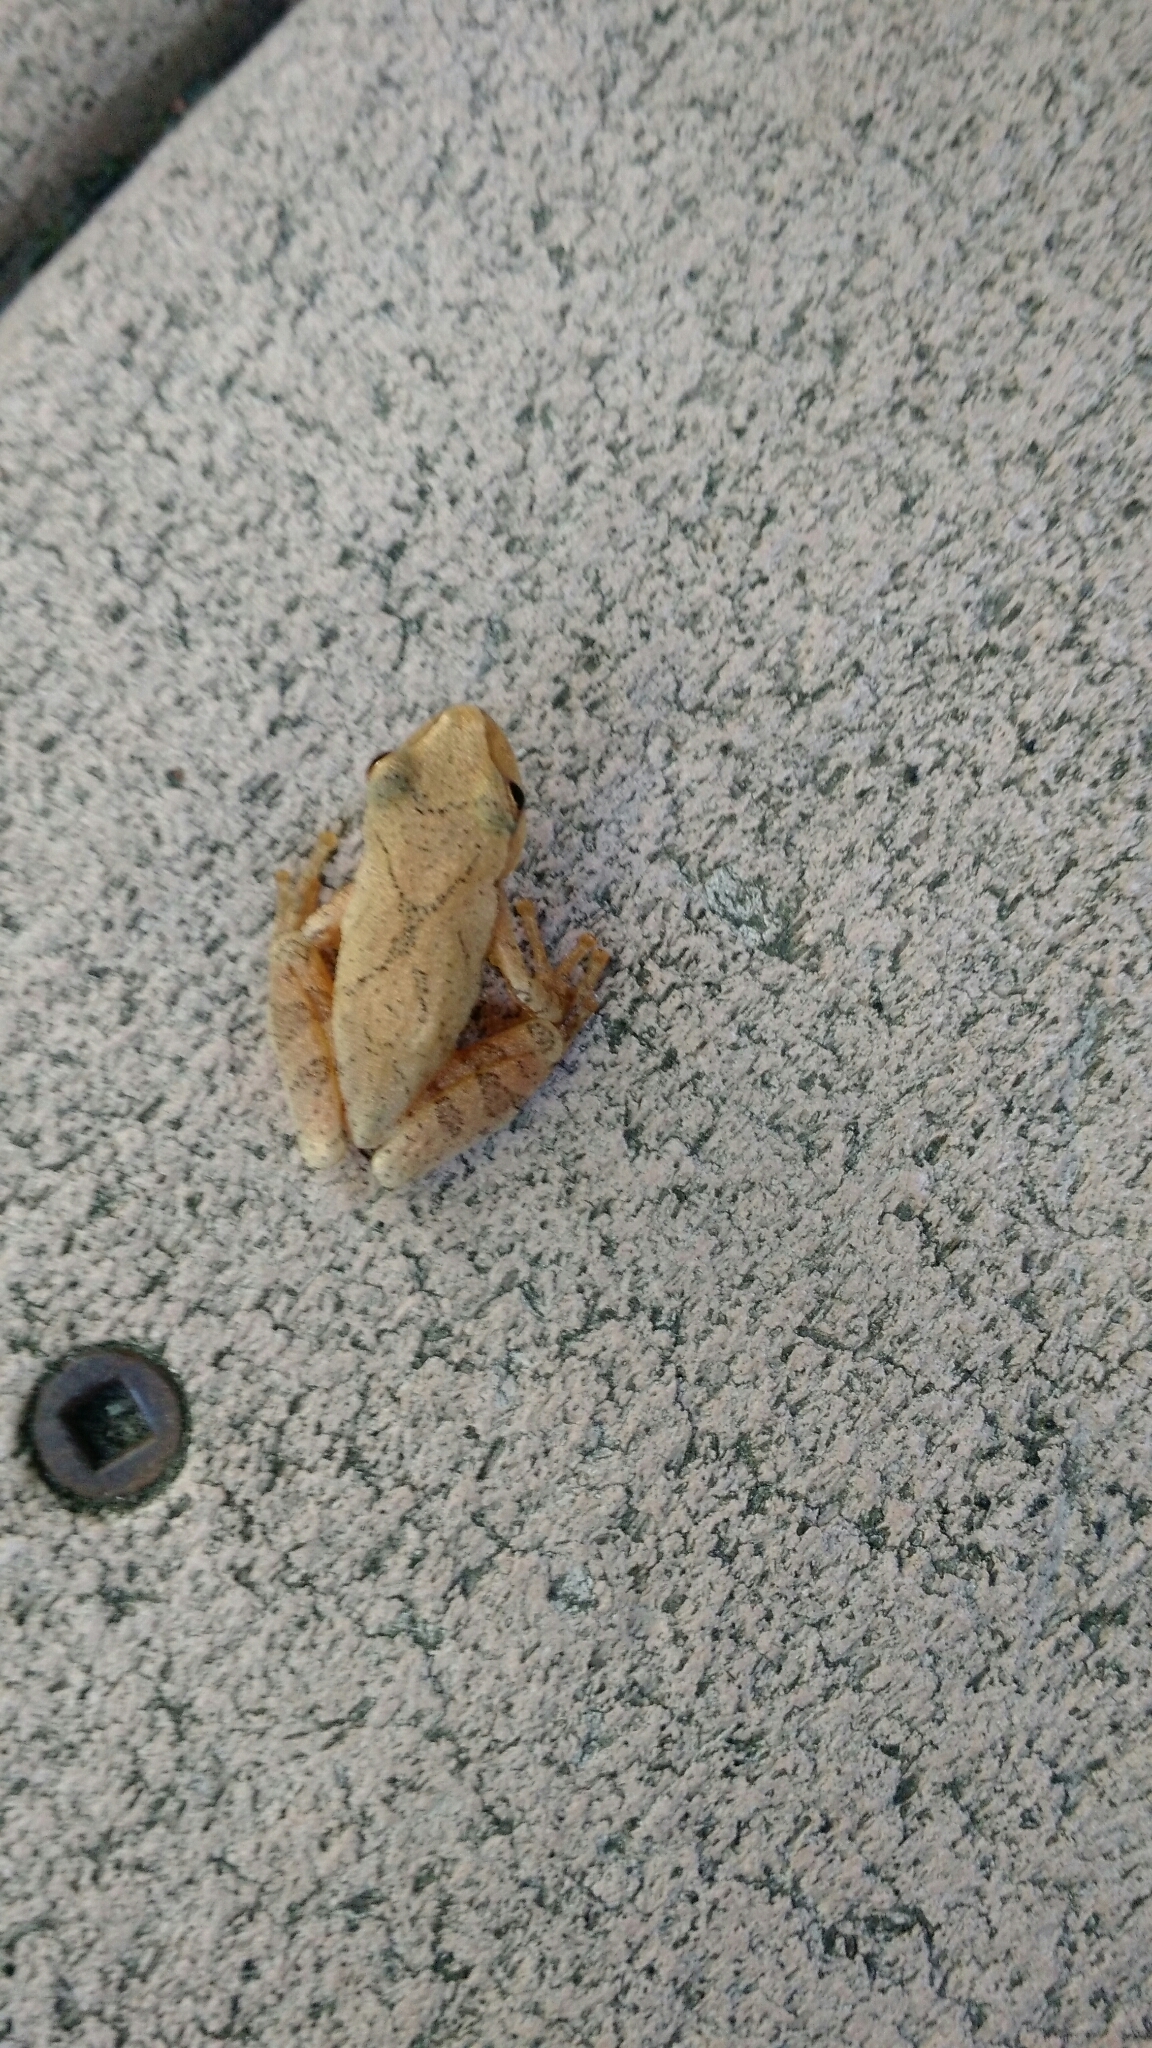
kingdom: Animalia
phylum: Chordata
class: Amphibia
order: Anura
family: Hylidae
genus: Pseudacris
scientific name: Pseudacris crucifer
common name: Spring peeper
